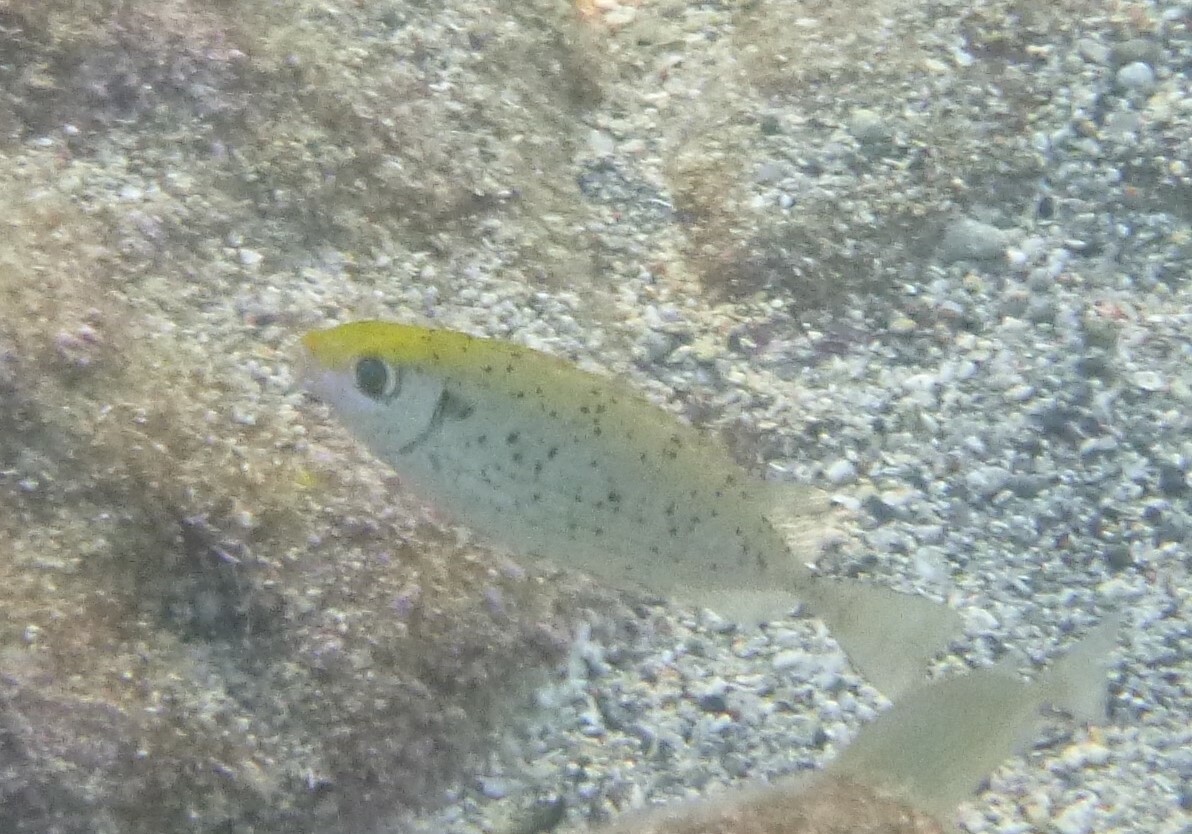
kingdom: Animalia
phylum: Chordata
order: Perciformes
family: Siganidae
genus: Siganus
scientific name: Siganus rivulatus
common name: Marbled spinefoot
